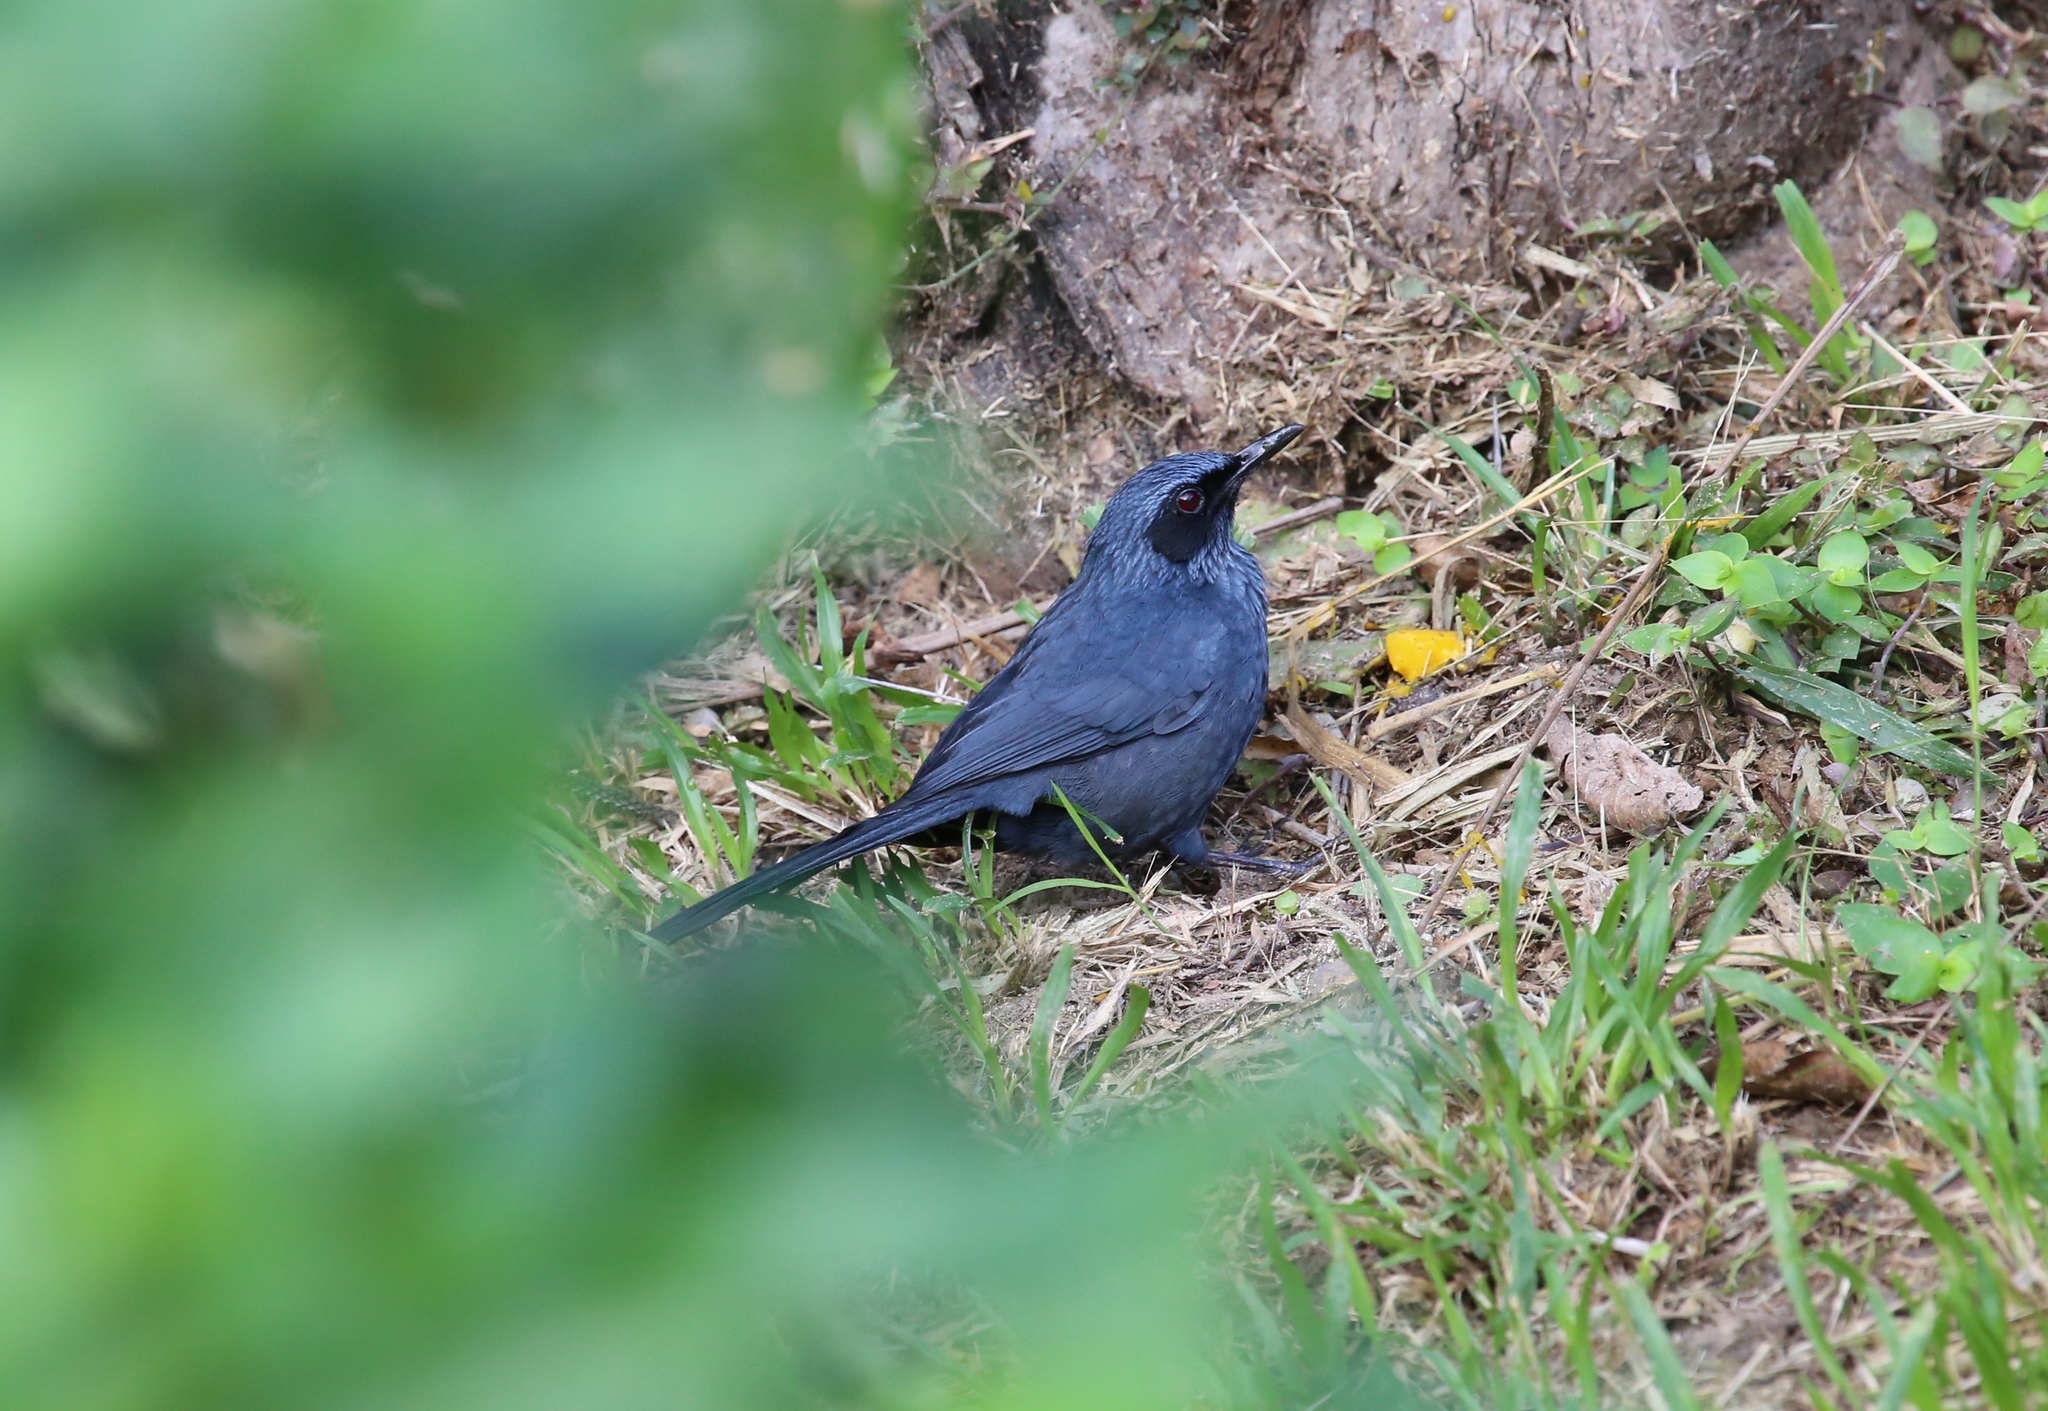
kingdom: Animalia
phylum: Chordata
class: Aves
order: Passeriformes
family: Mimidae
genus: Melanotis
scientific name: Melanotis caerulescens
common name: Blue mockingbird
